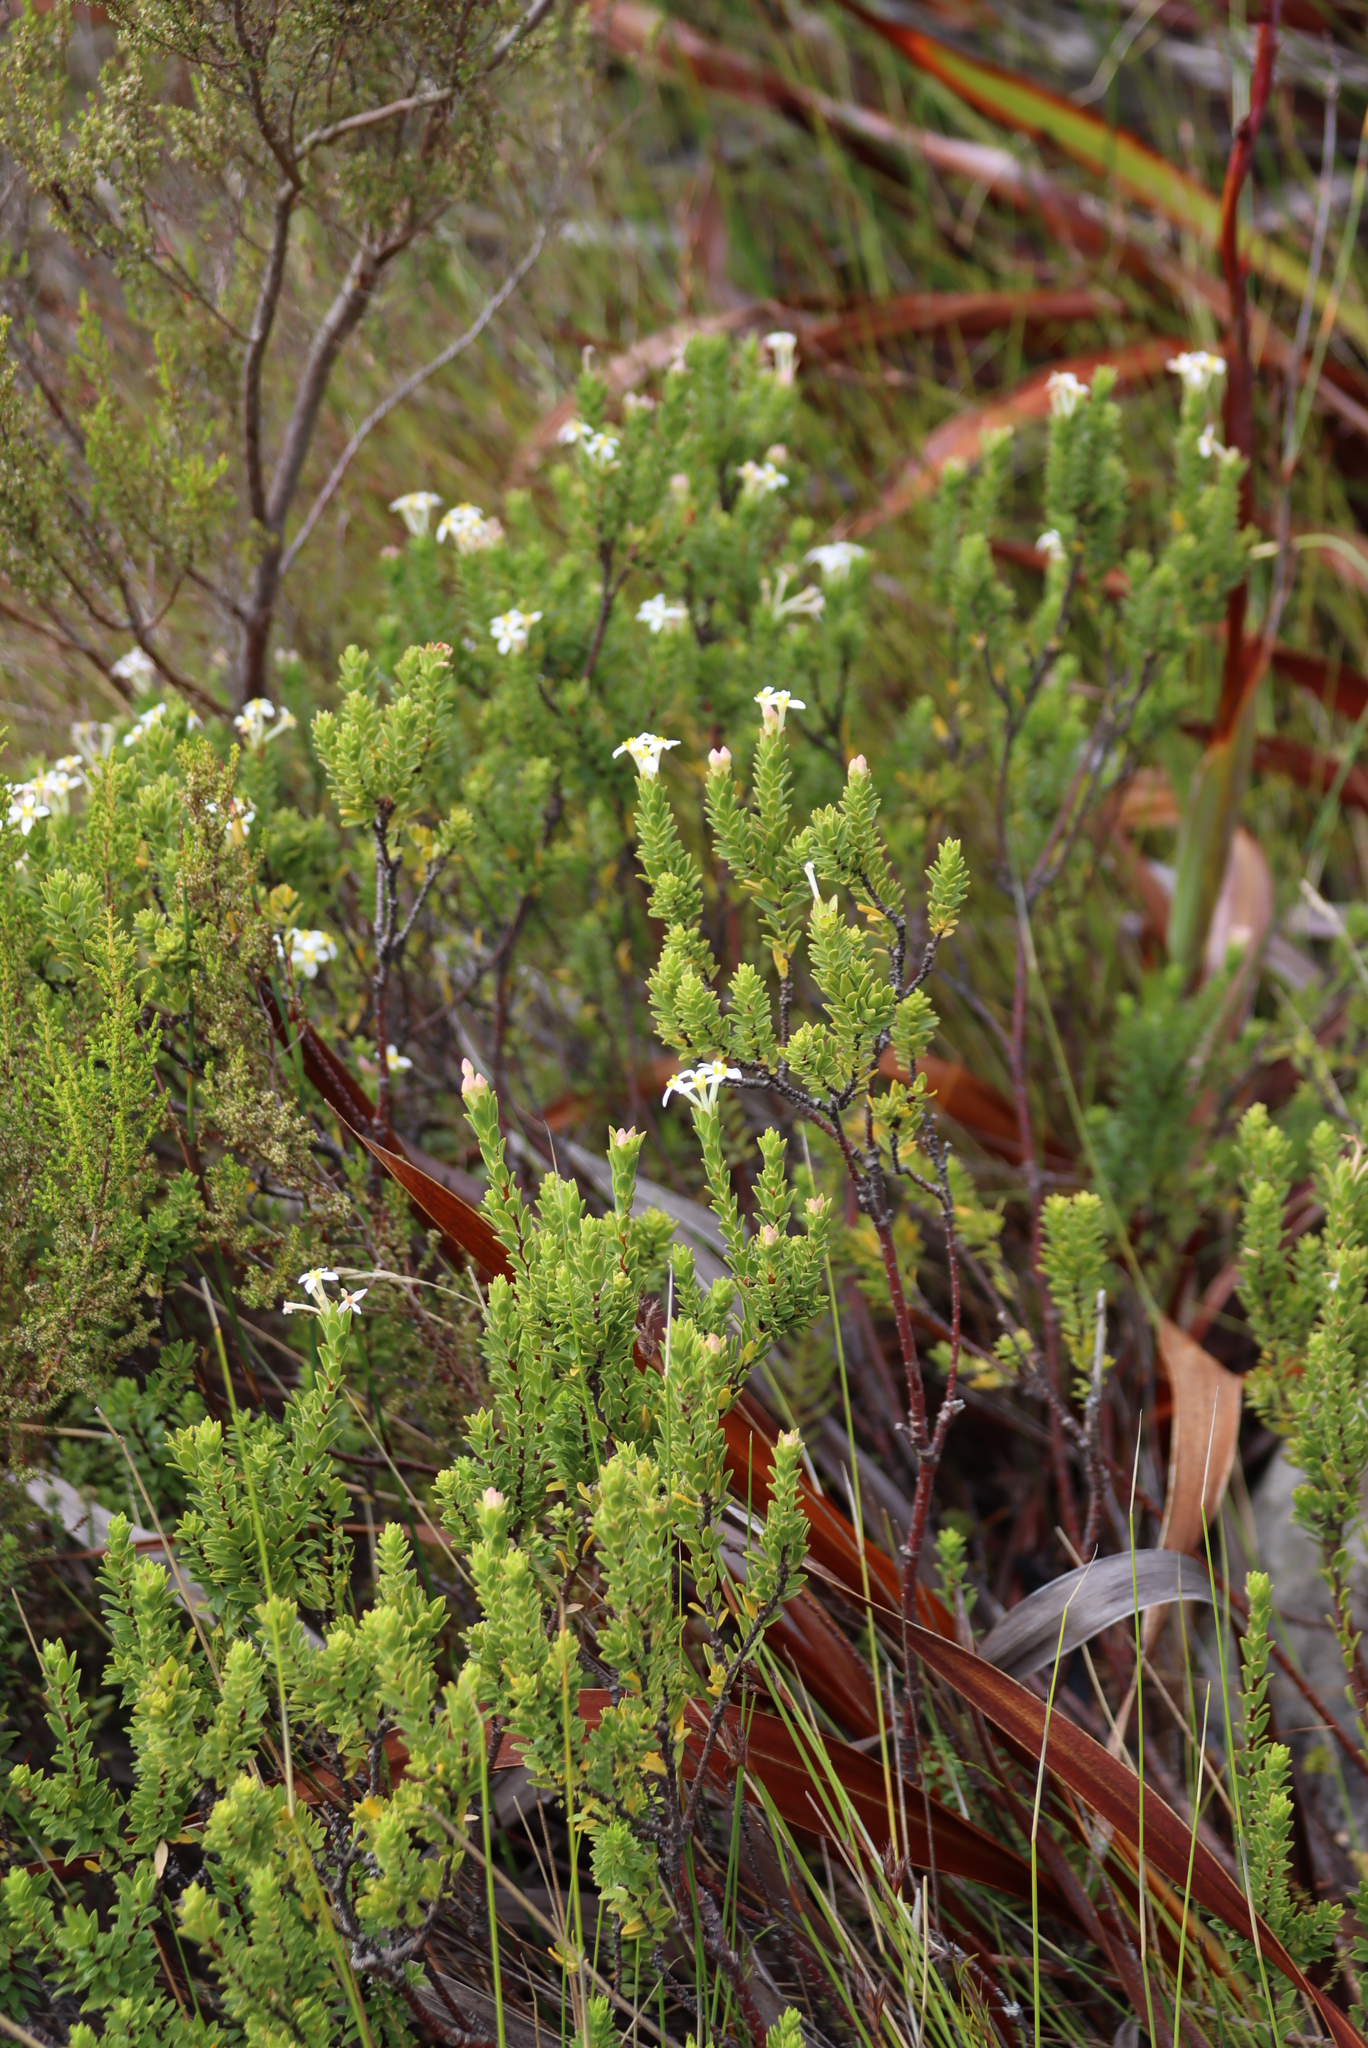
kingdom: Plantae
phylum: Tracheophyta
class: Magnoliopsida
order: Malvales
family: Thymelaeaceae
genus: Gnidia
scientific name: Gnidia tomentosa
